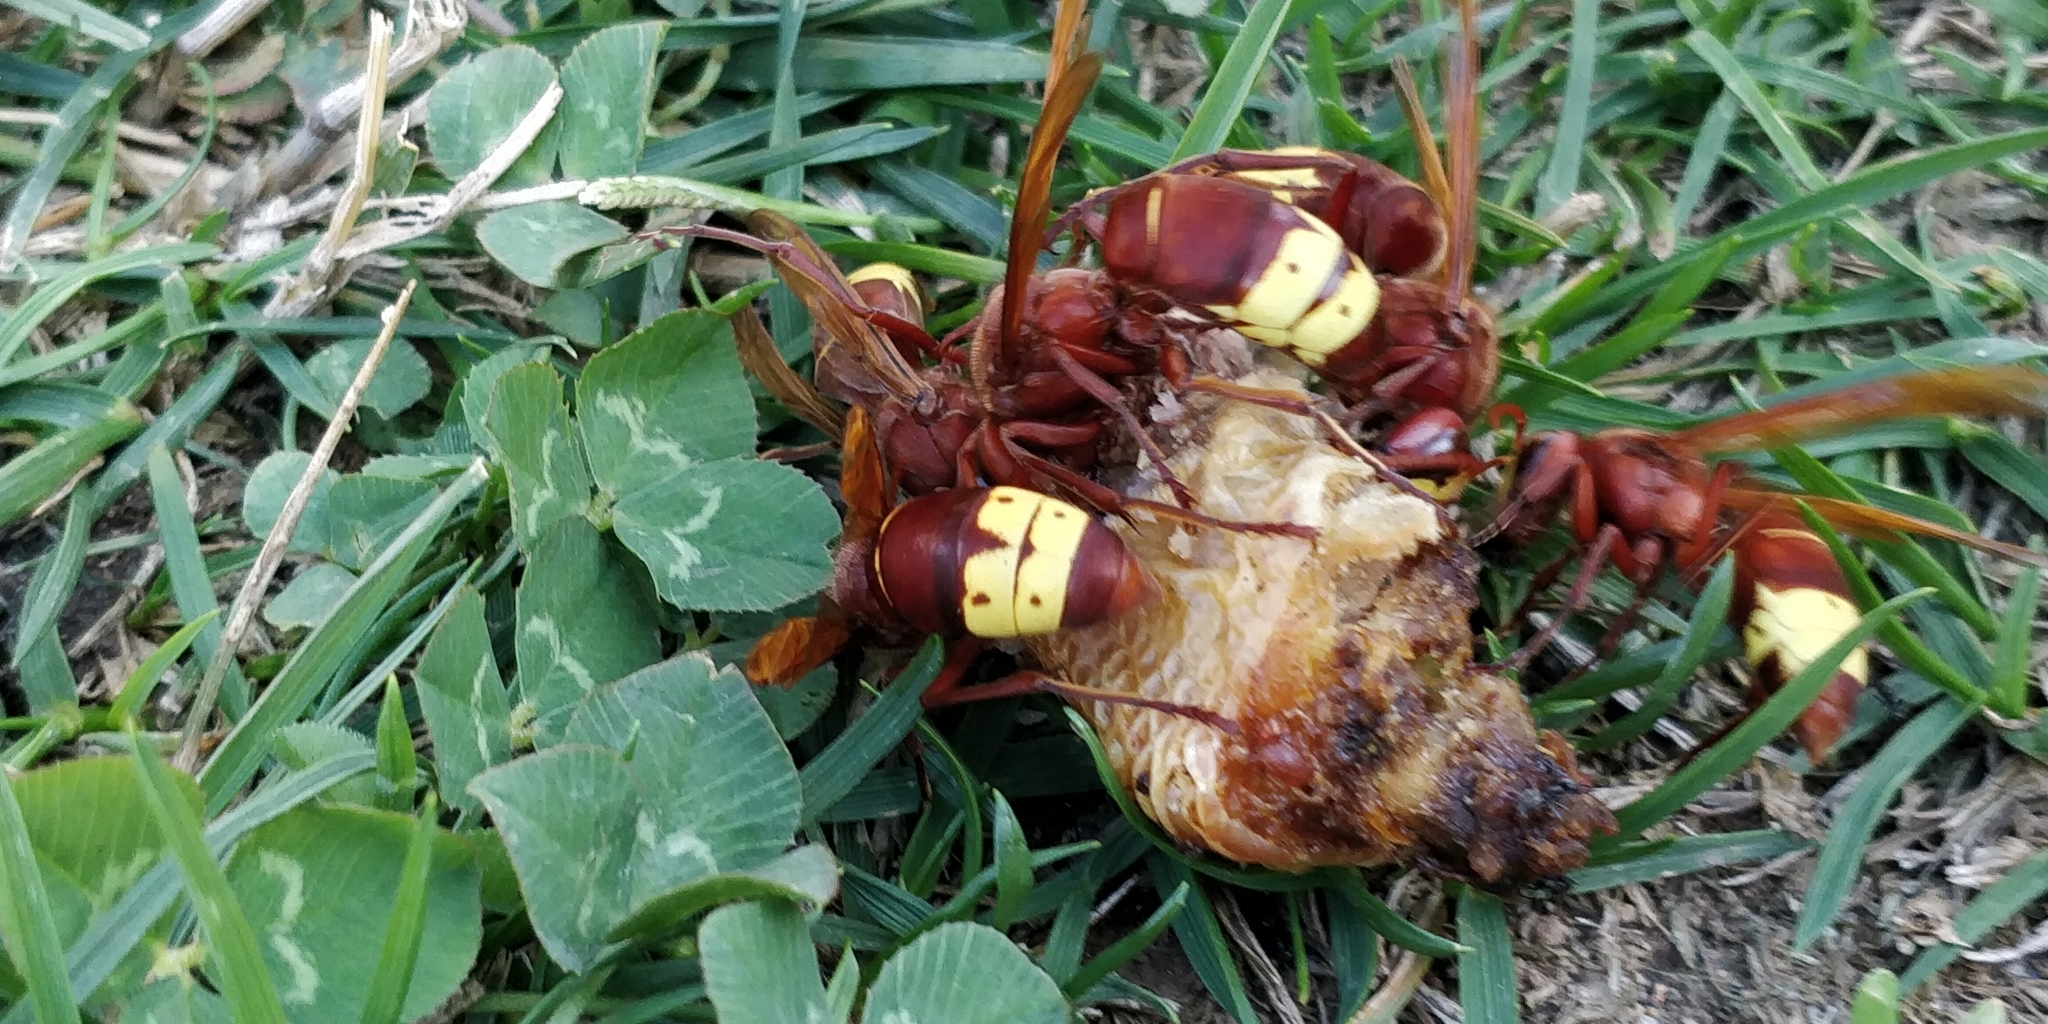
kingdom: Animalia
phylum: Arthropoda
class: Insecta
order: Hymenoptera
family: Vespidae
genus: Vespa
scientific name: Vespa orientalis
